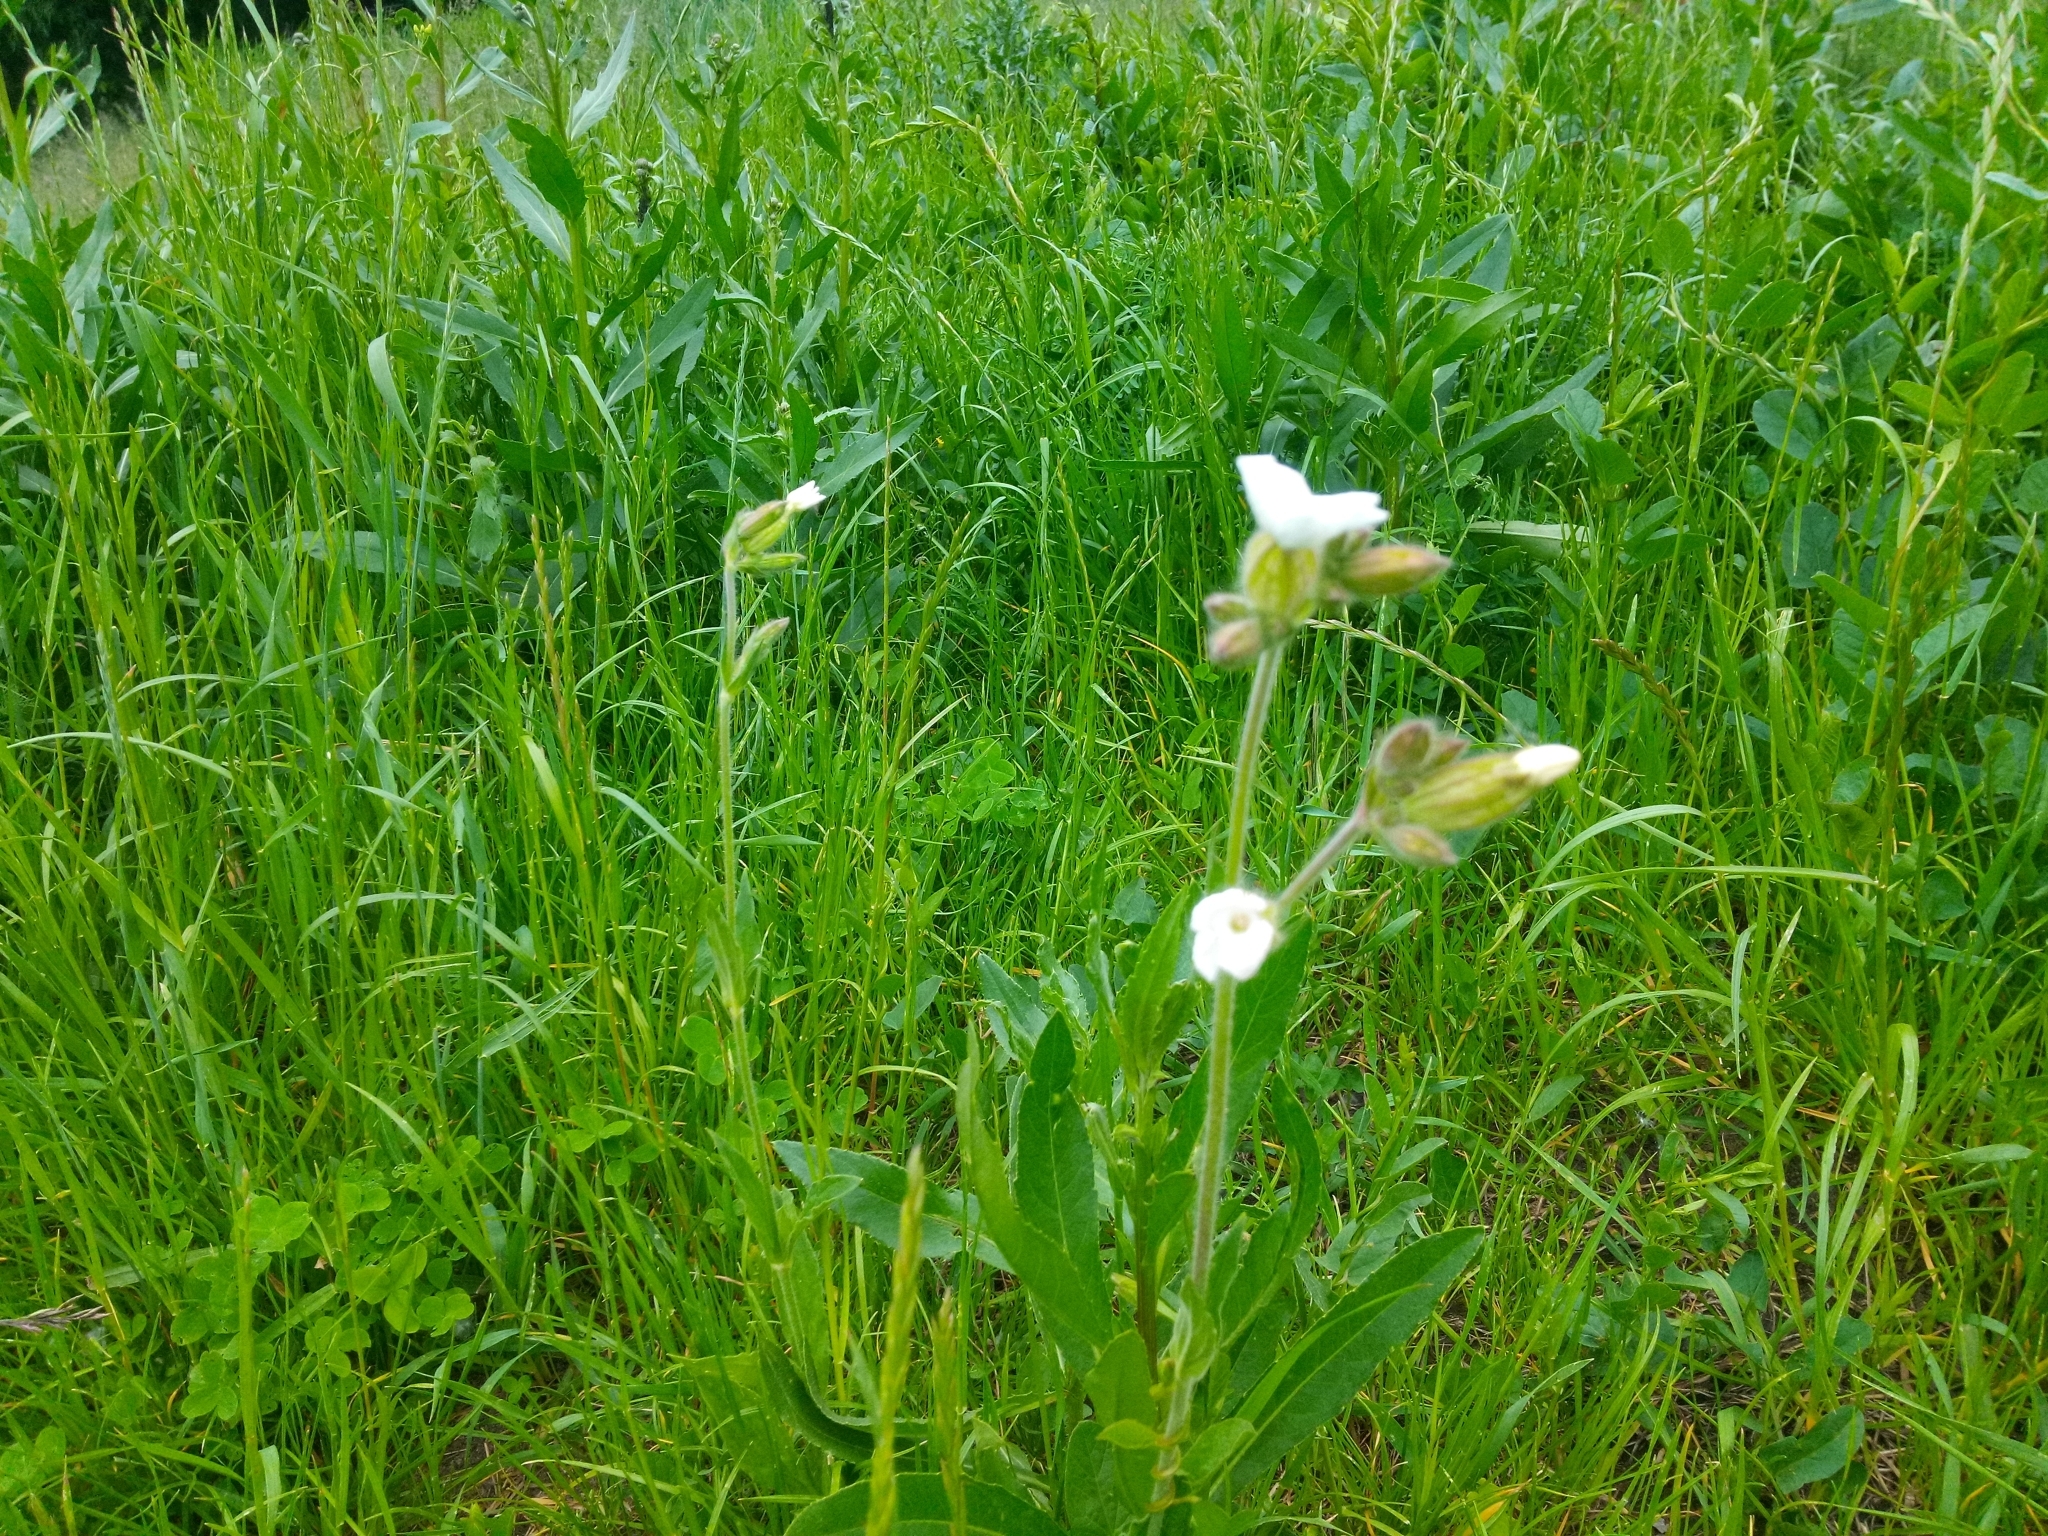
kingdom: Plantae
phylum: Tracheophyta
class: Magnoliopsida
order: Caryophyllales
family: Caryophyllaceae
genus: Silene
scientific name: Silene latifolia
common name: White campion
